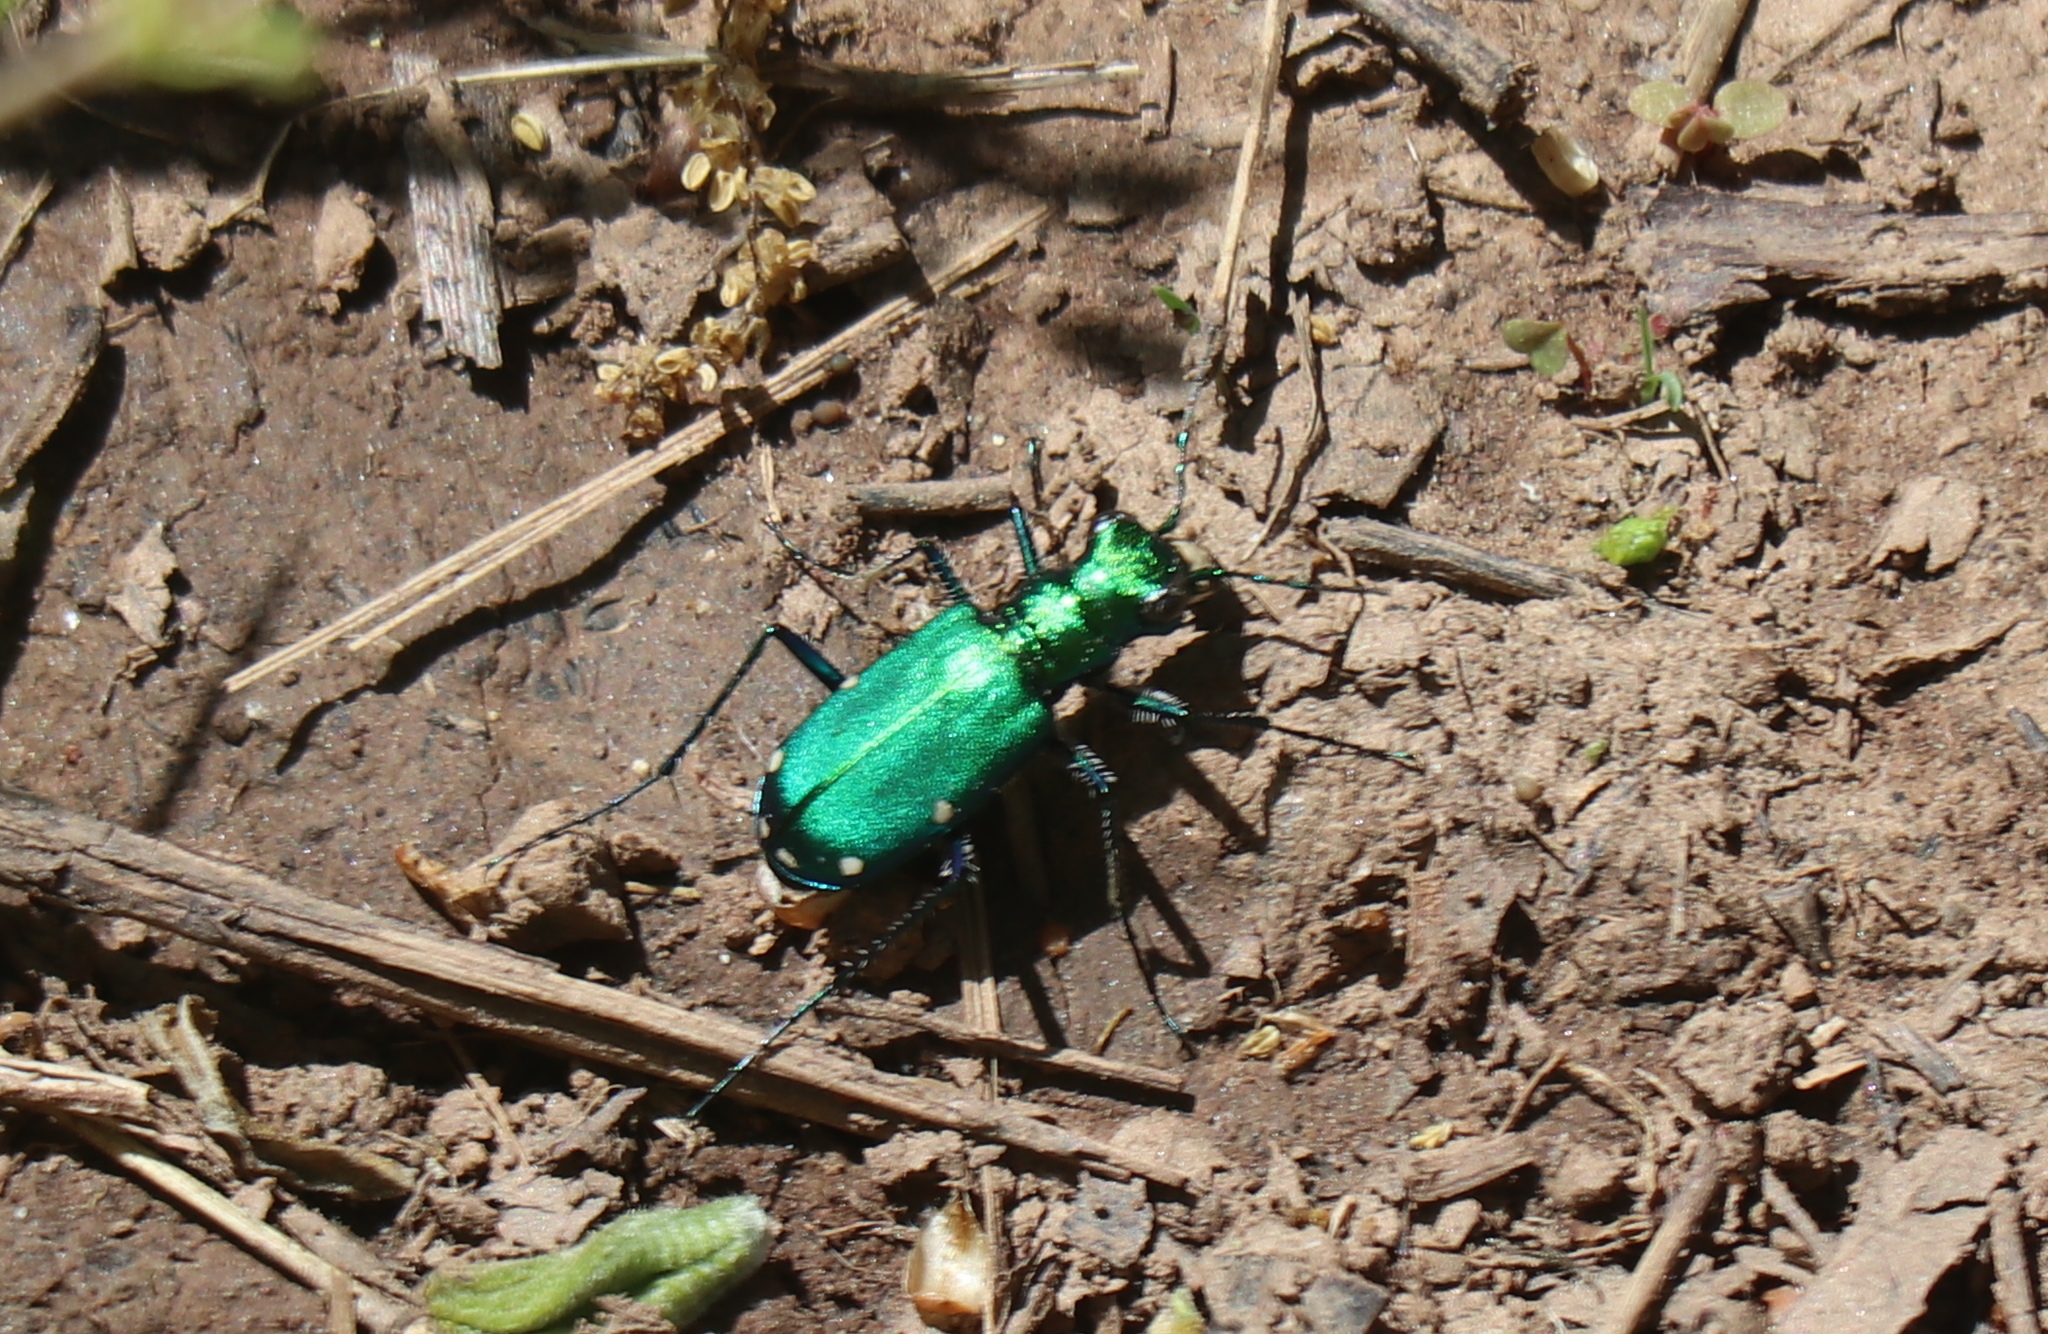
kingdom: Animalia
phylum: Arthropoda
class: Insecta
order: Coleoptera
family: Carabidae
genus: Cicindela
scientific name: Cicindela sexguttata
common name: Six-spotted tiger beetle
